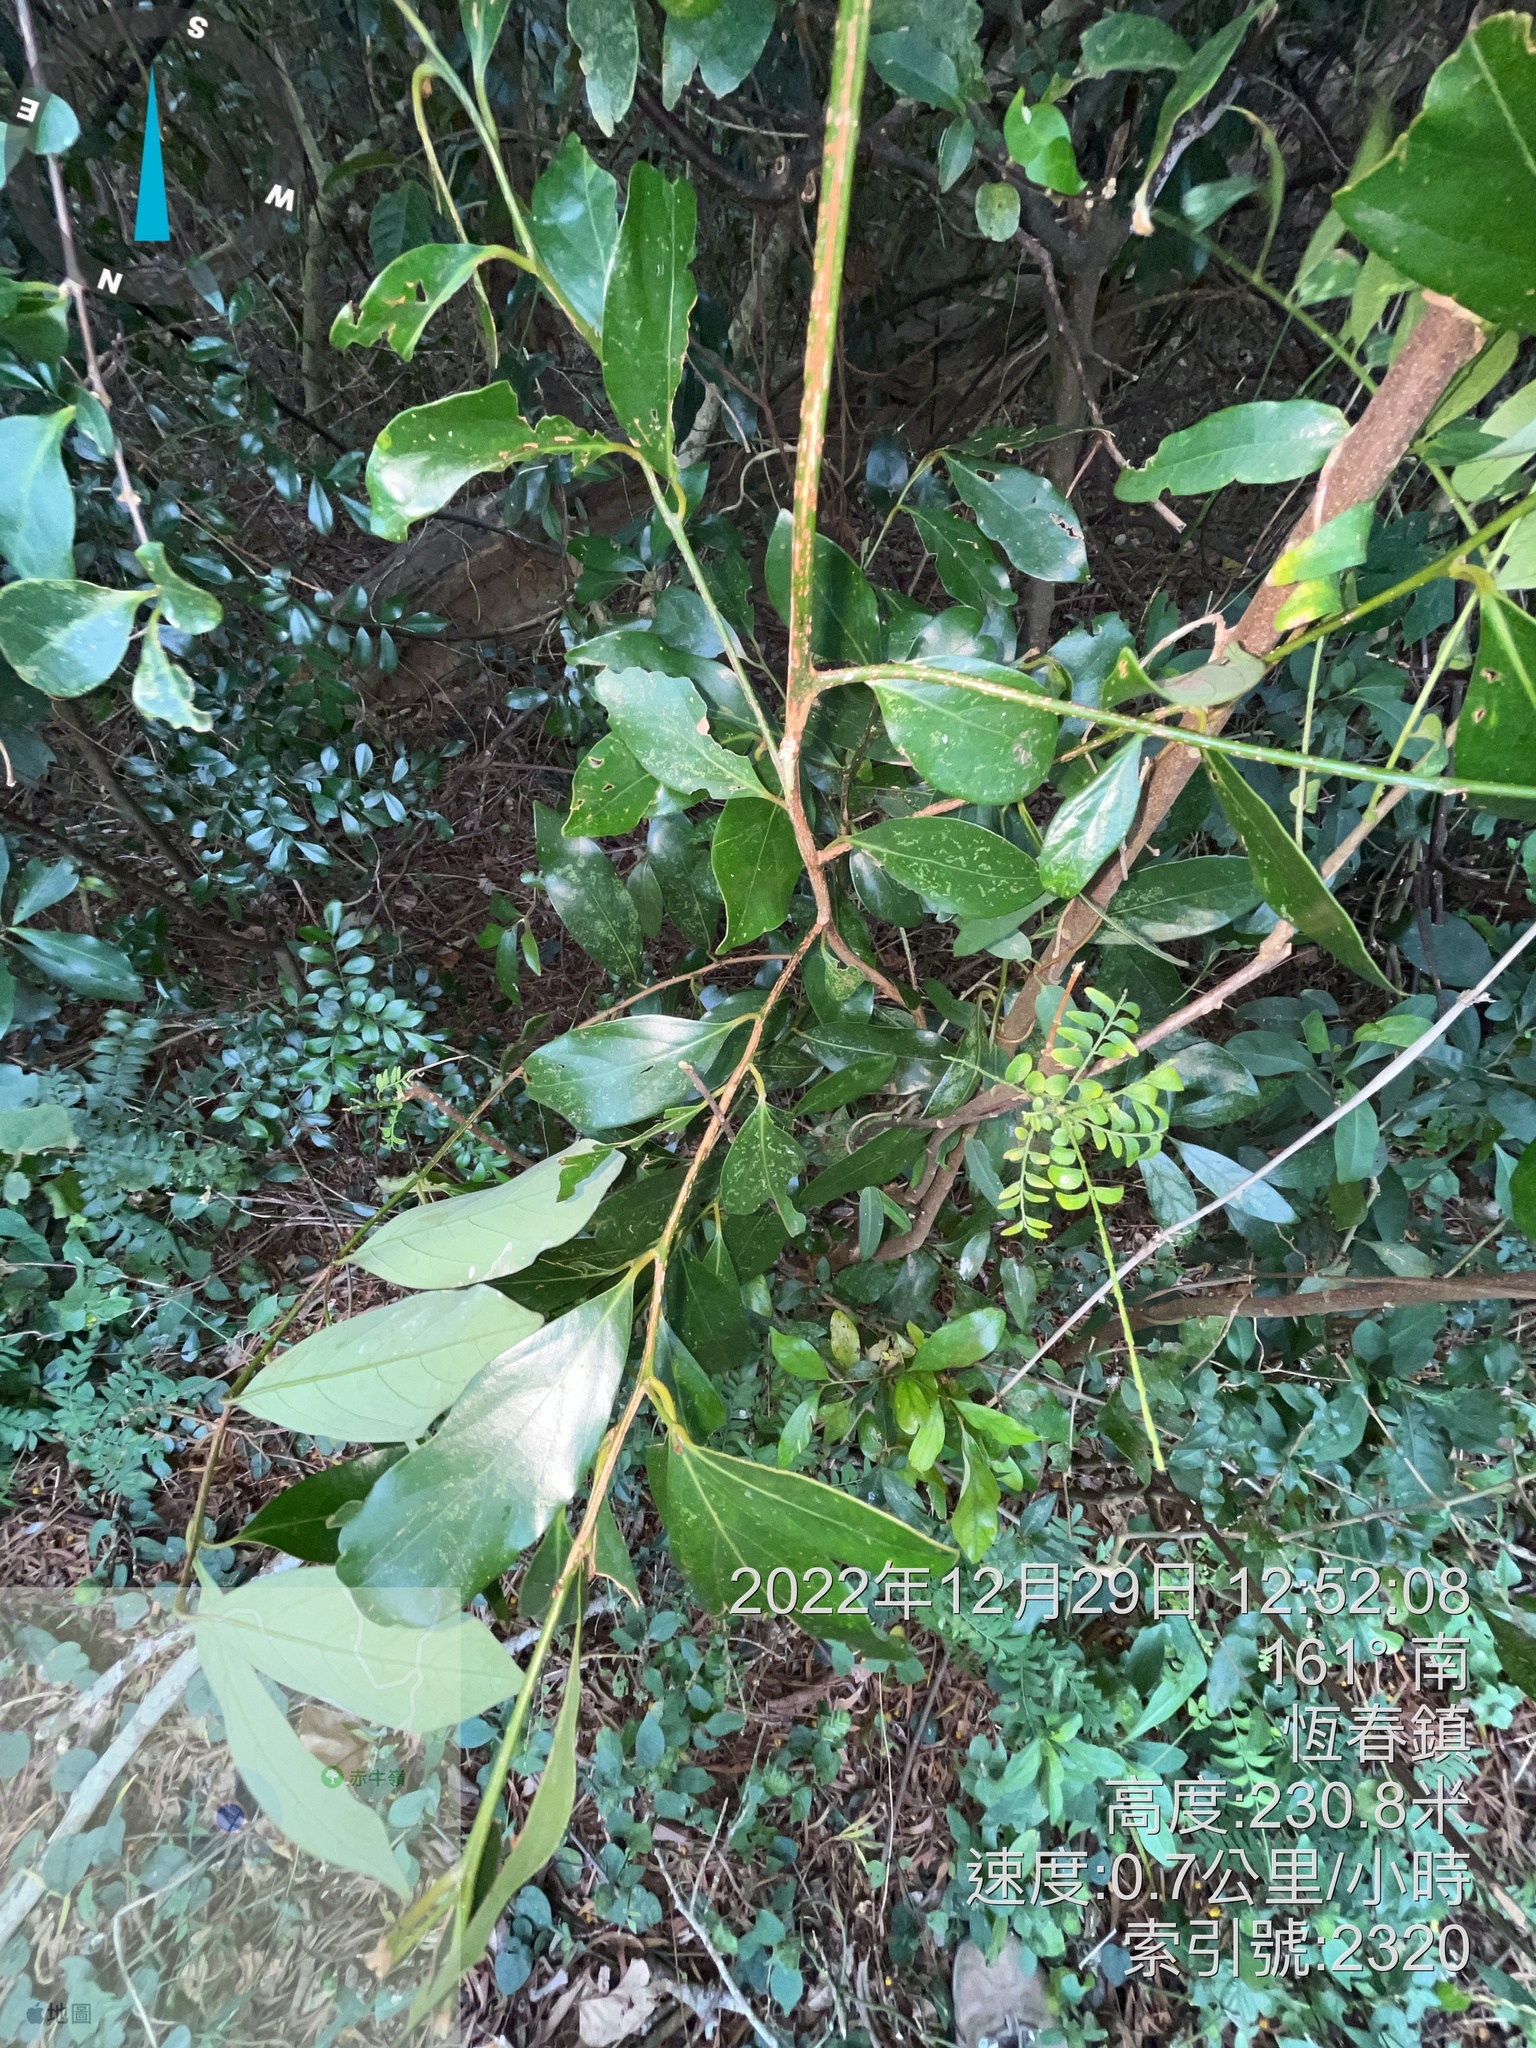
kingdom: Plantae
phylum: Tracheophyta
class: Magnoliopsida
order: Laurales
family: Lauraceae
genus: Cinnamomum
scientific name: Cinnamomum reticulatum
